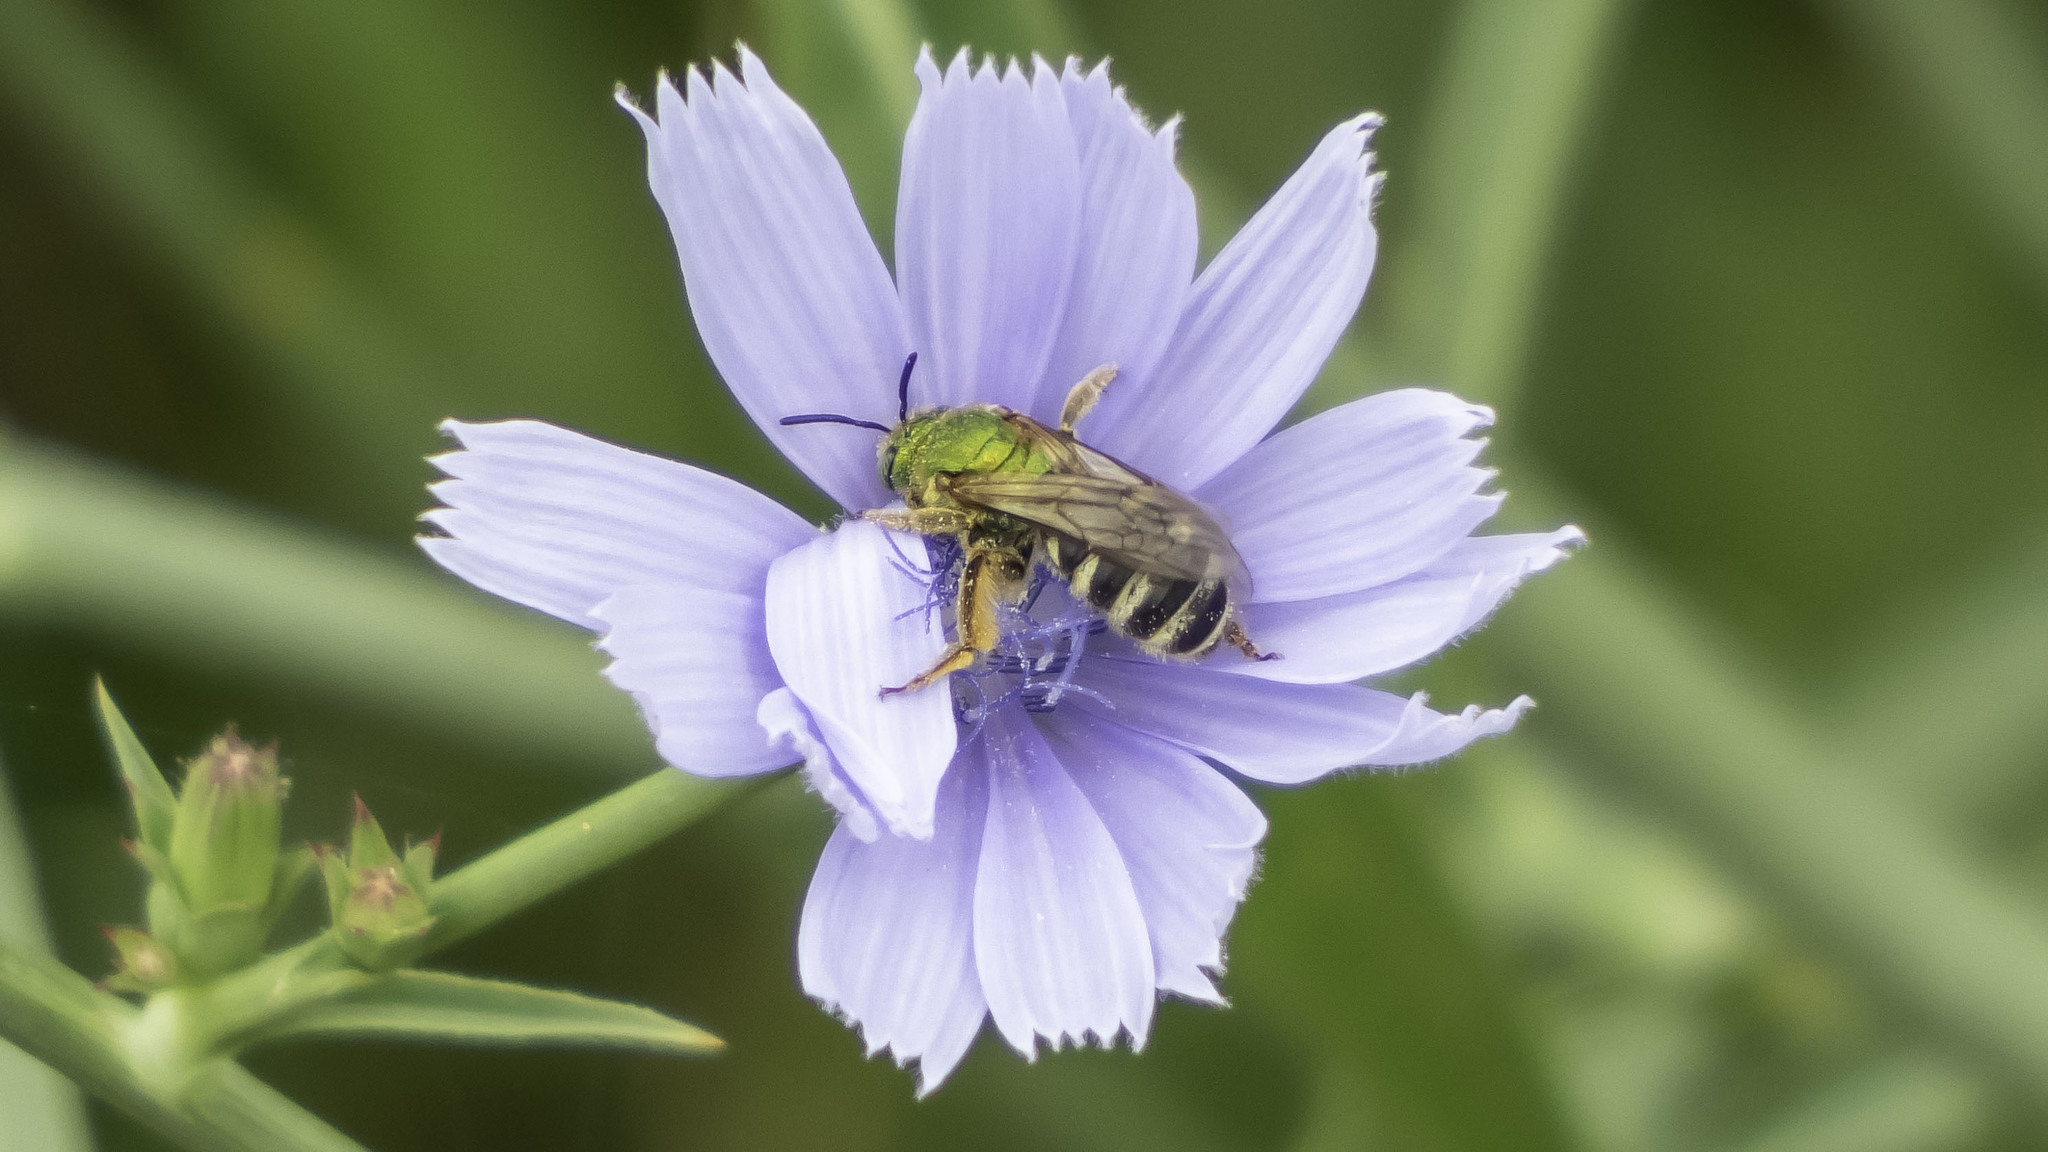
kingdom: Animalia
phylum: Arthropoda
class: Insecta
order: Hymenoptera
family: Halictidae
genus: Agapostemon
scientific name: Agapostemon virescens
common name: Bicolored striped sweat bee
